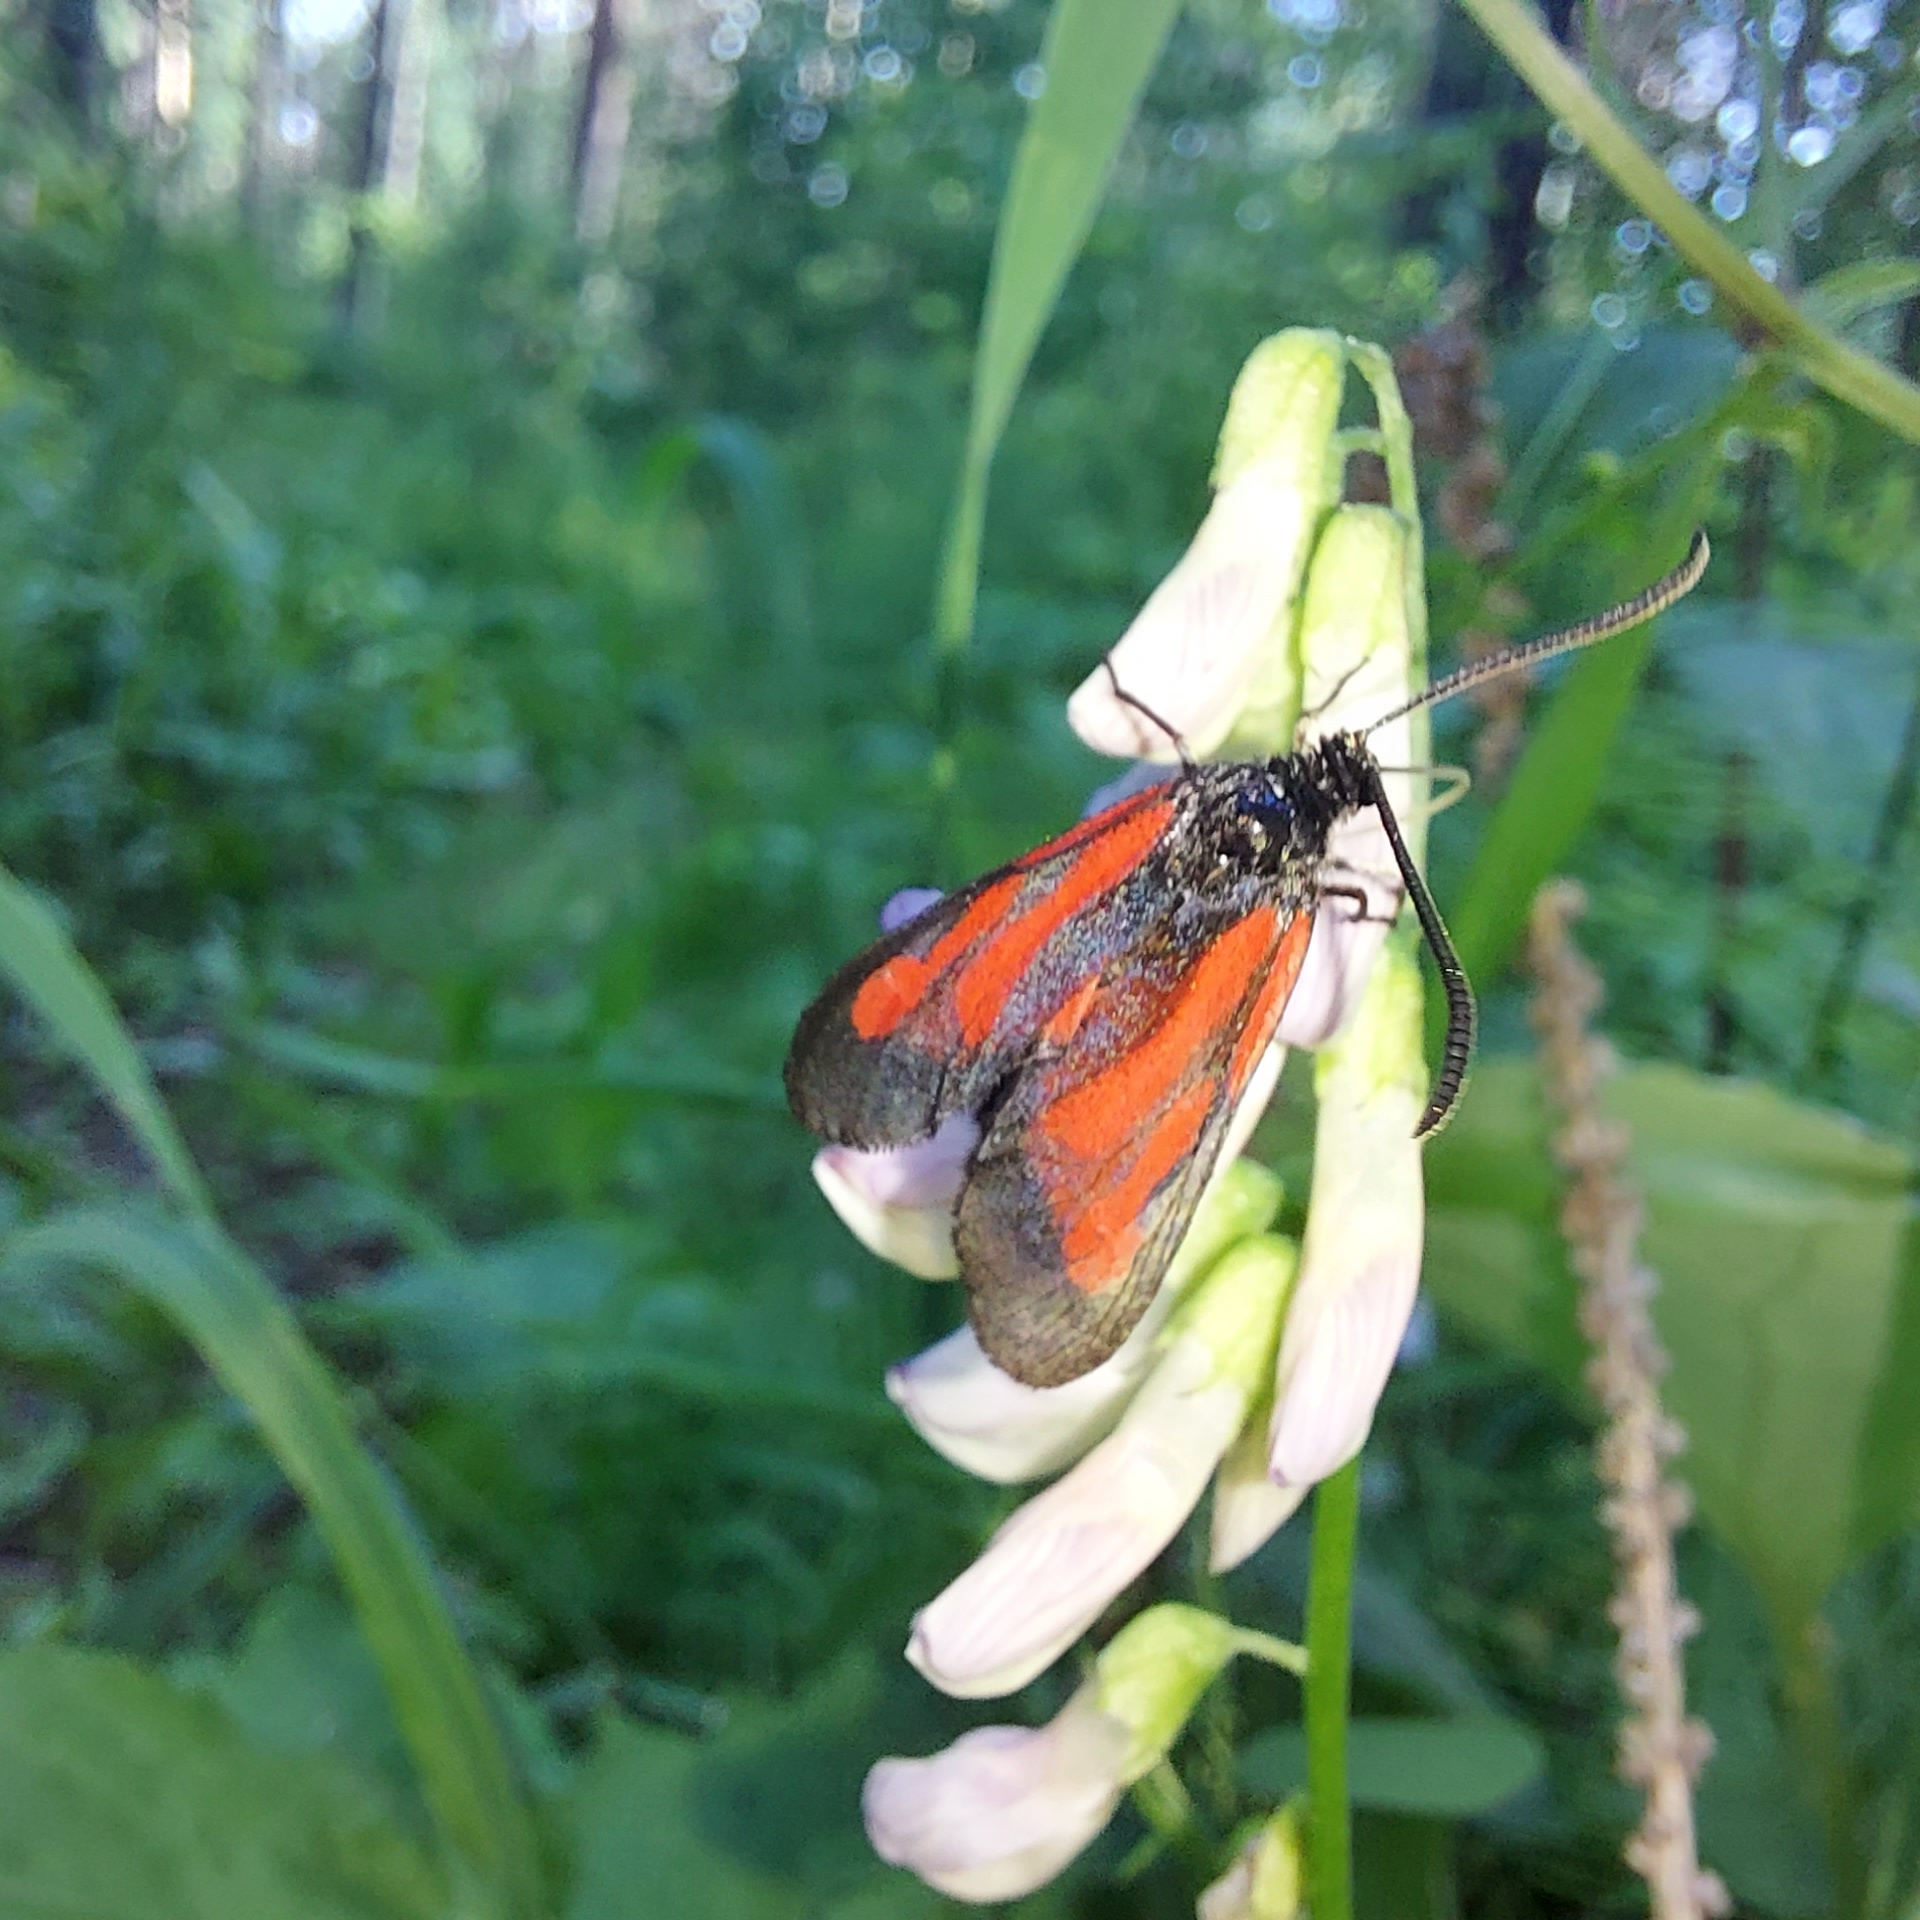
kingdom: Animalia
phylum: Arthropoda
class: Insecta
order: Lepidoptera
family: Zygaenidae
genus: Zygaena
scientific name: Zygaena osterodensis
